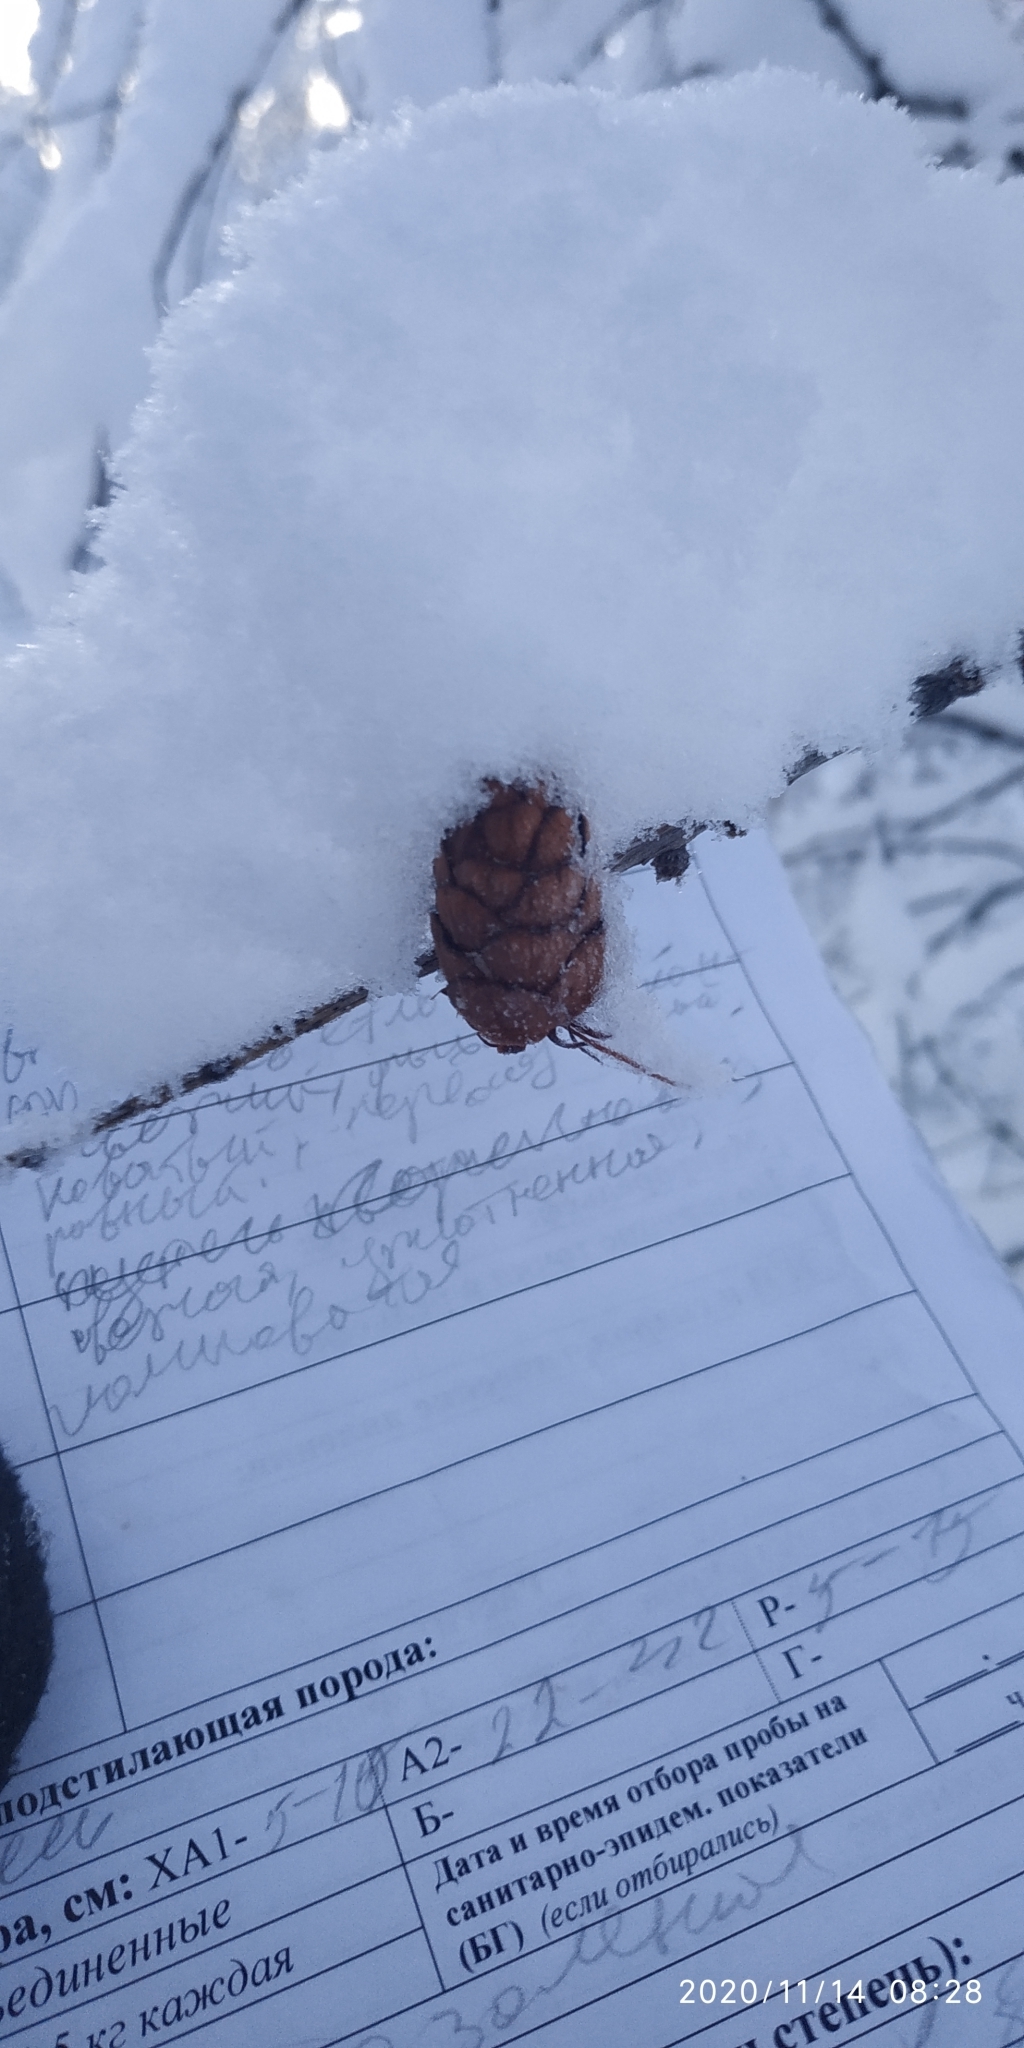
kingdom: Plantae
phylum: Tracheophyta
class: Pinopsida
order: Pinales
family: Pinaceae
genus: Larix
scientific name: Larix sibirica
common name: Siberian larch
